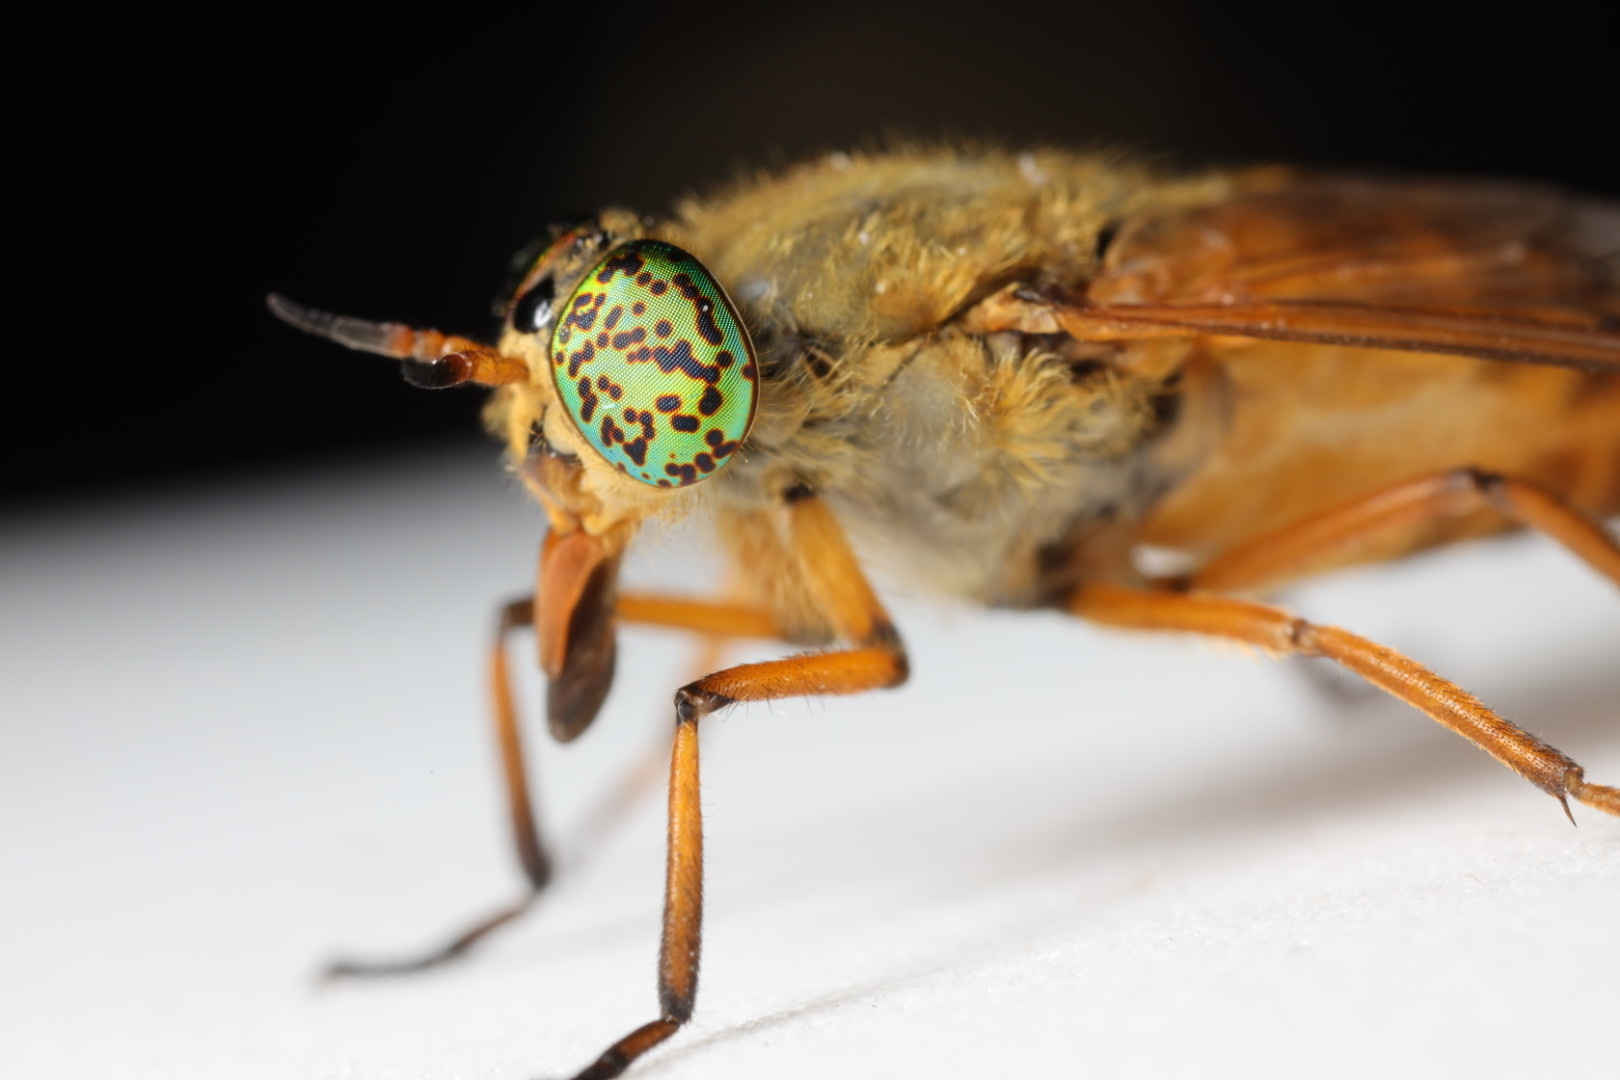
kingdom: Animalia
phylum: Arthropoda
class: Insecta
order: Diptera
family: Tabanidae
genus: Silvius
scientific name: Silvius gigantulus
